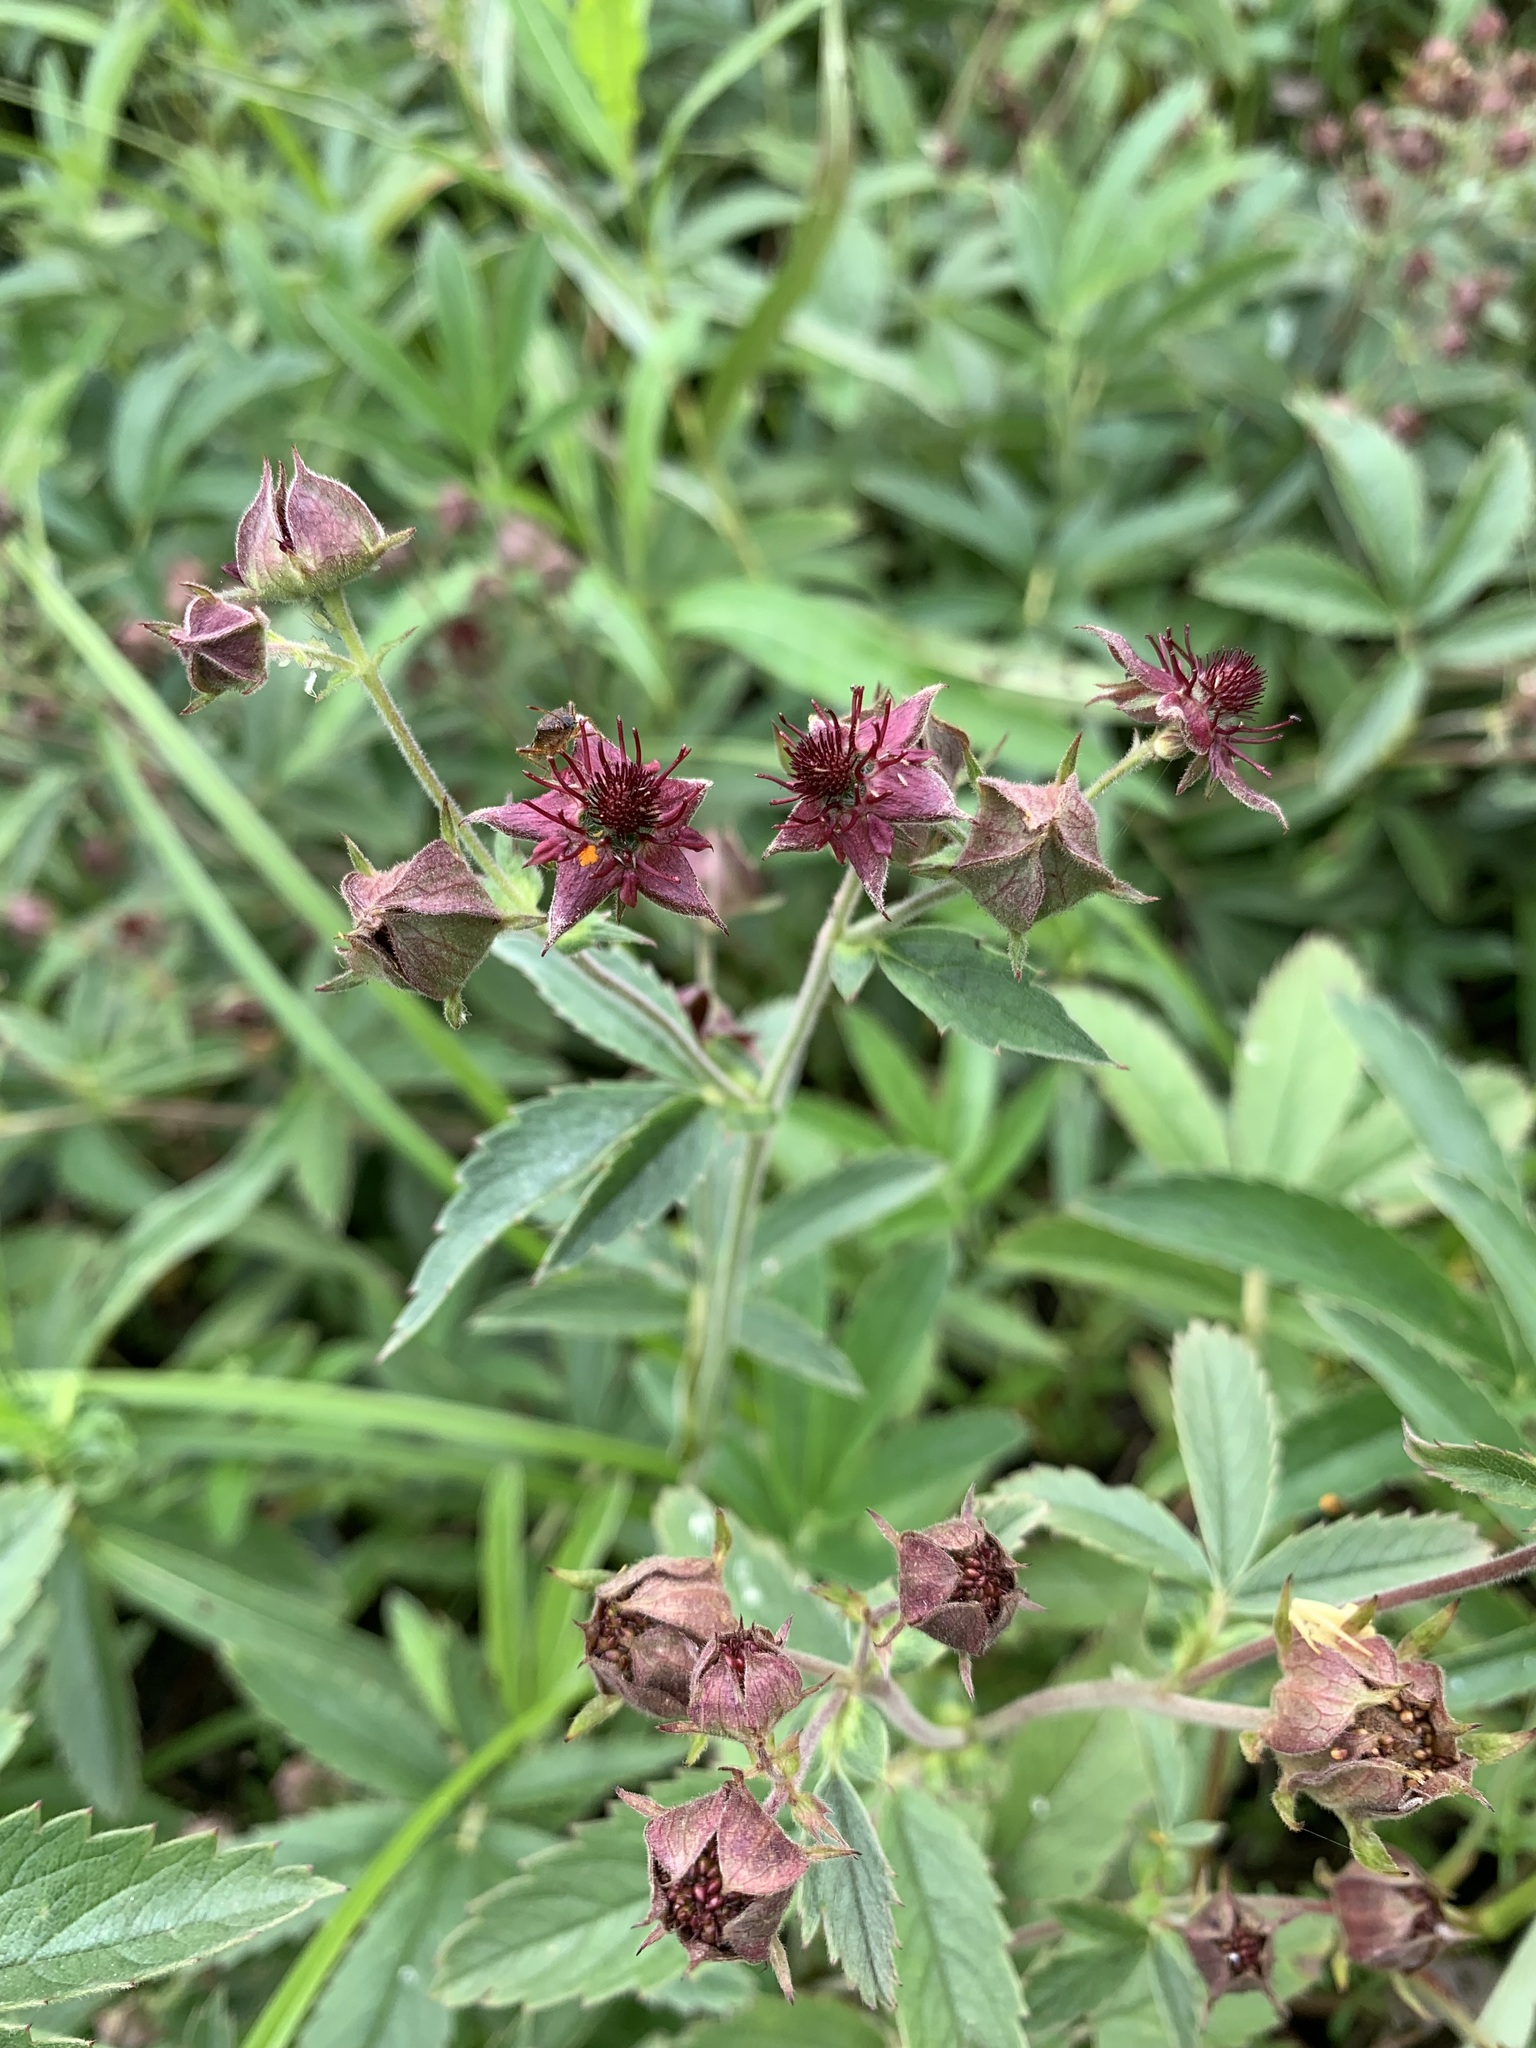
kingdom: Plantae
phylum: Tracheophyta
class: Magnoliopsida
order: Rosales
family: Rosaceae
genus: Comarum
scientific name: Comarum palustre
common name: Marsh cinquefoil
